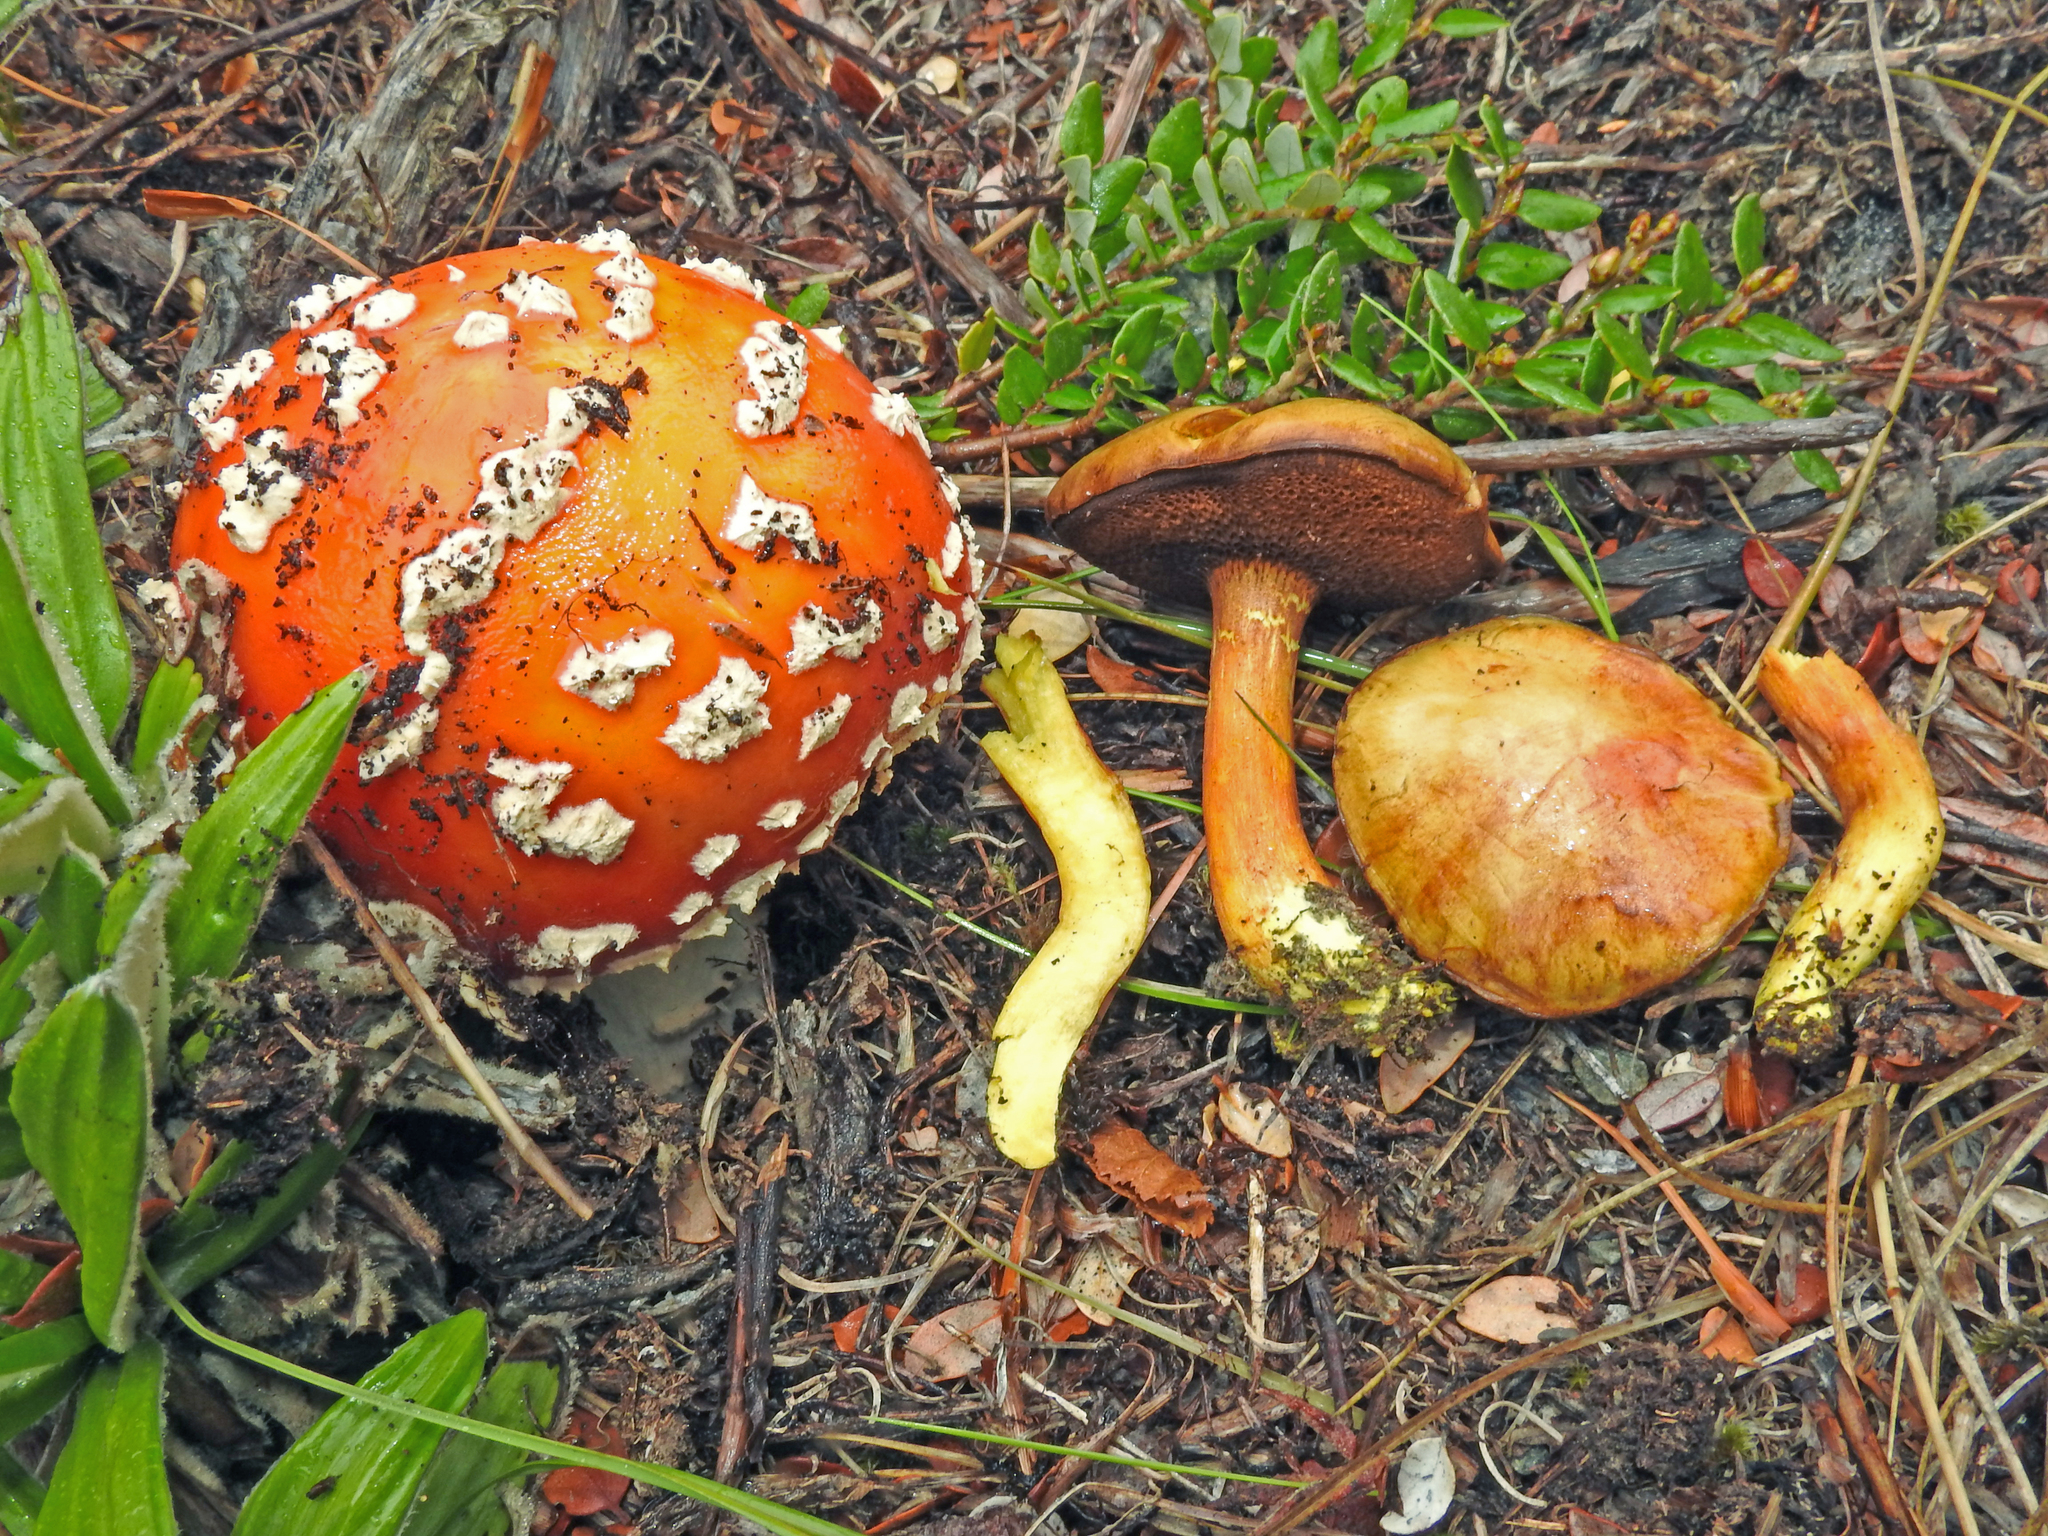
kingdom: Fungi
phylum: Basidiomycota
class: Agaricomycetes
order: Agaricales
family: Amanitaceae
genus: Amanita
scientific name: Amanita muscaria
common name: Fly agaric
